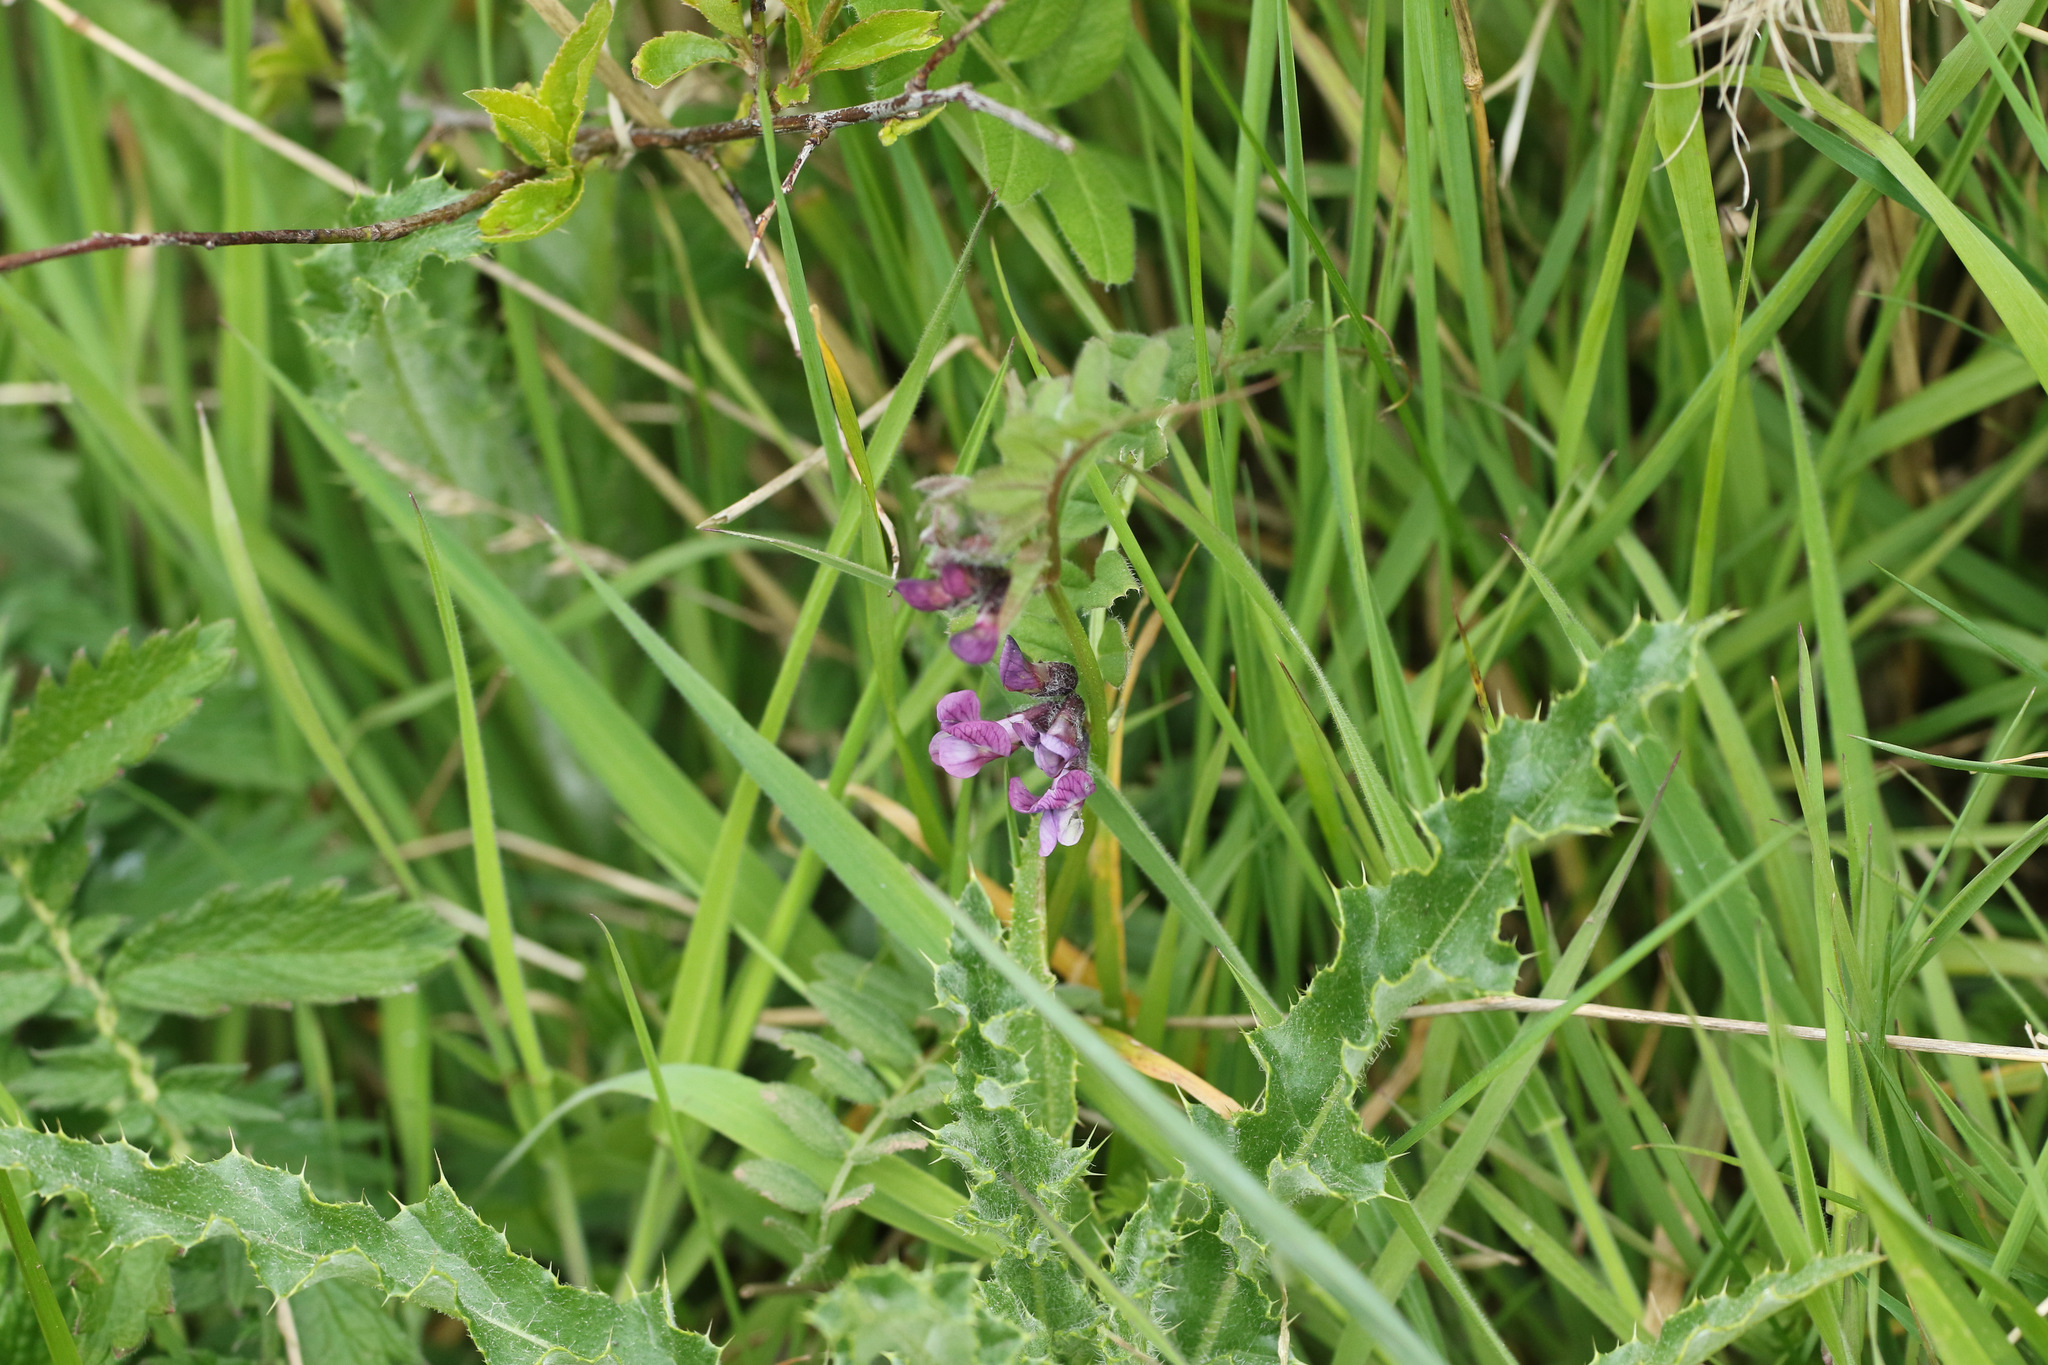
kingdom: Plantae
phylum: Tracheophyta
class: Magnoliopsida
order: Fabales
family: Fabaceae
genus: Vicia
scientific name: Vicia sepium
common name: Bush vetch
